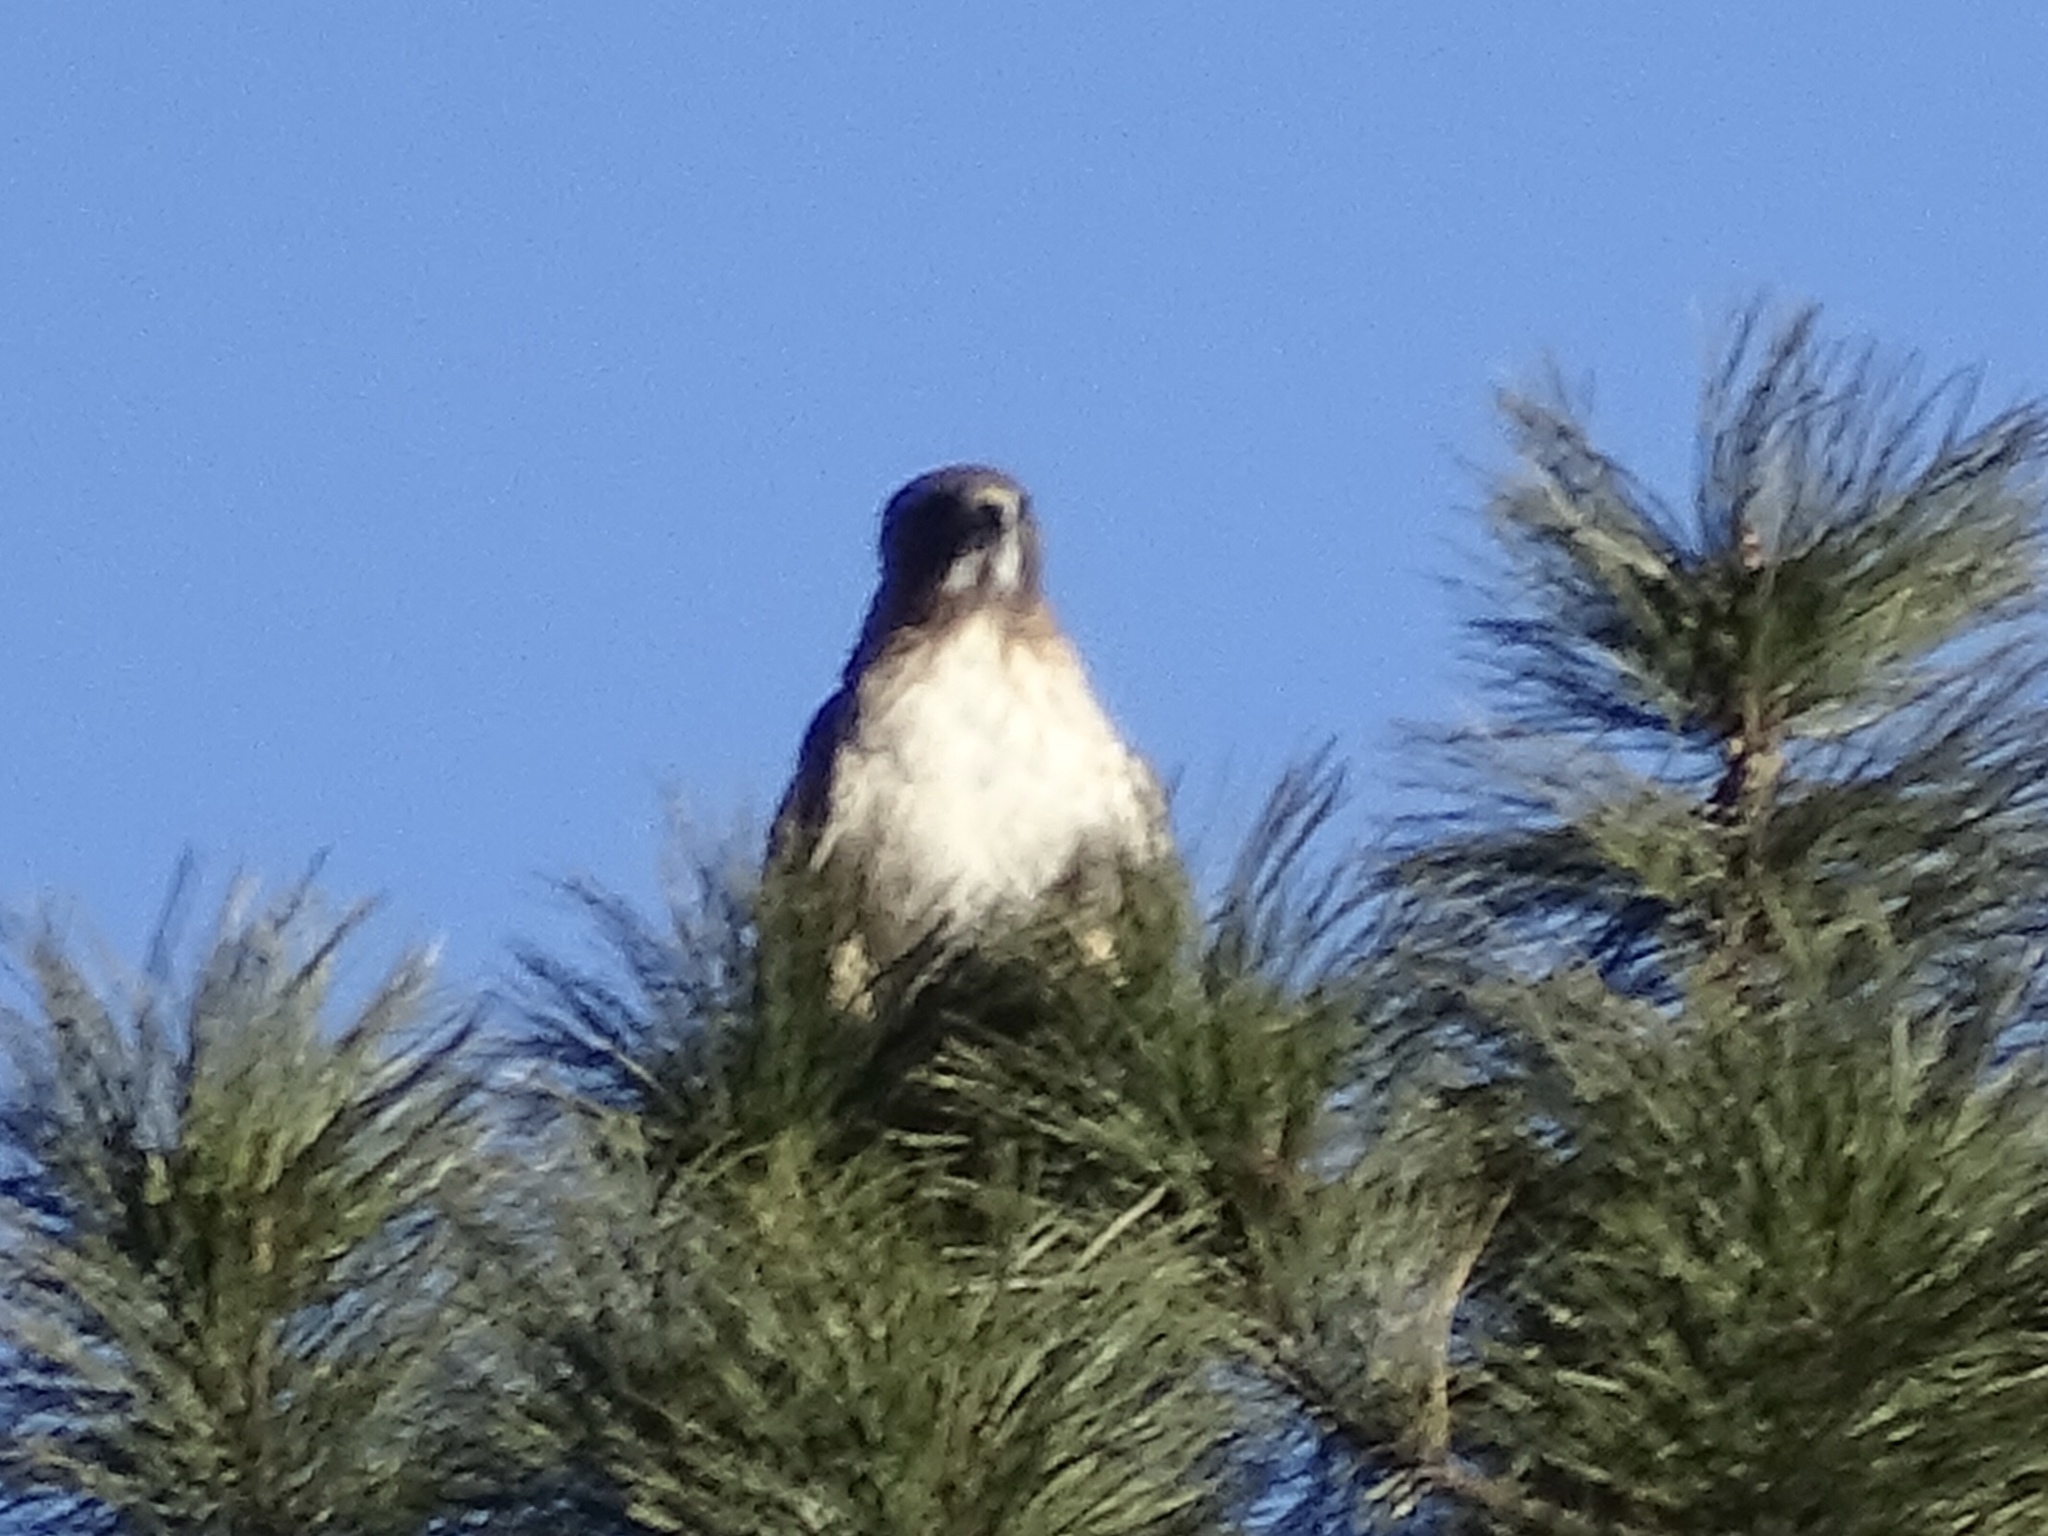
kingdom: Animalia
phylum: Chordata
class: Aves
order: Accipitriformes
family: Accipitridae
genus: Buteo
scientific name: Buteo jamaicensis
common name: Red-tailed hawk
